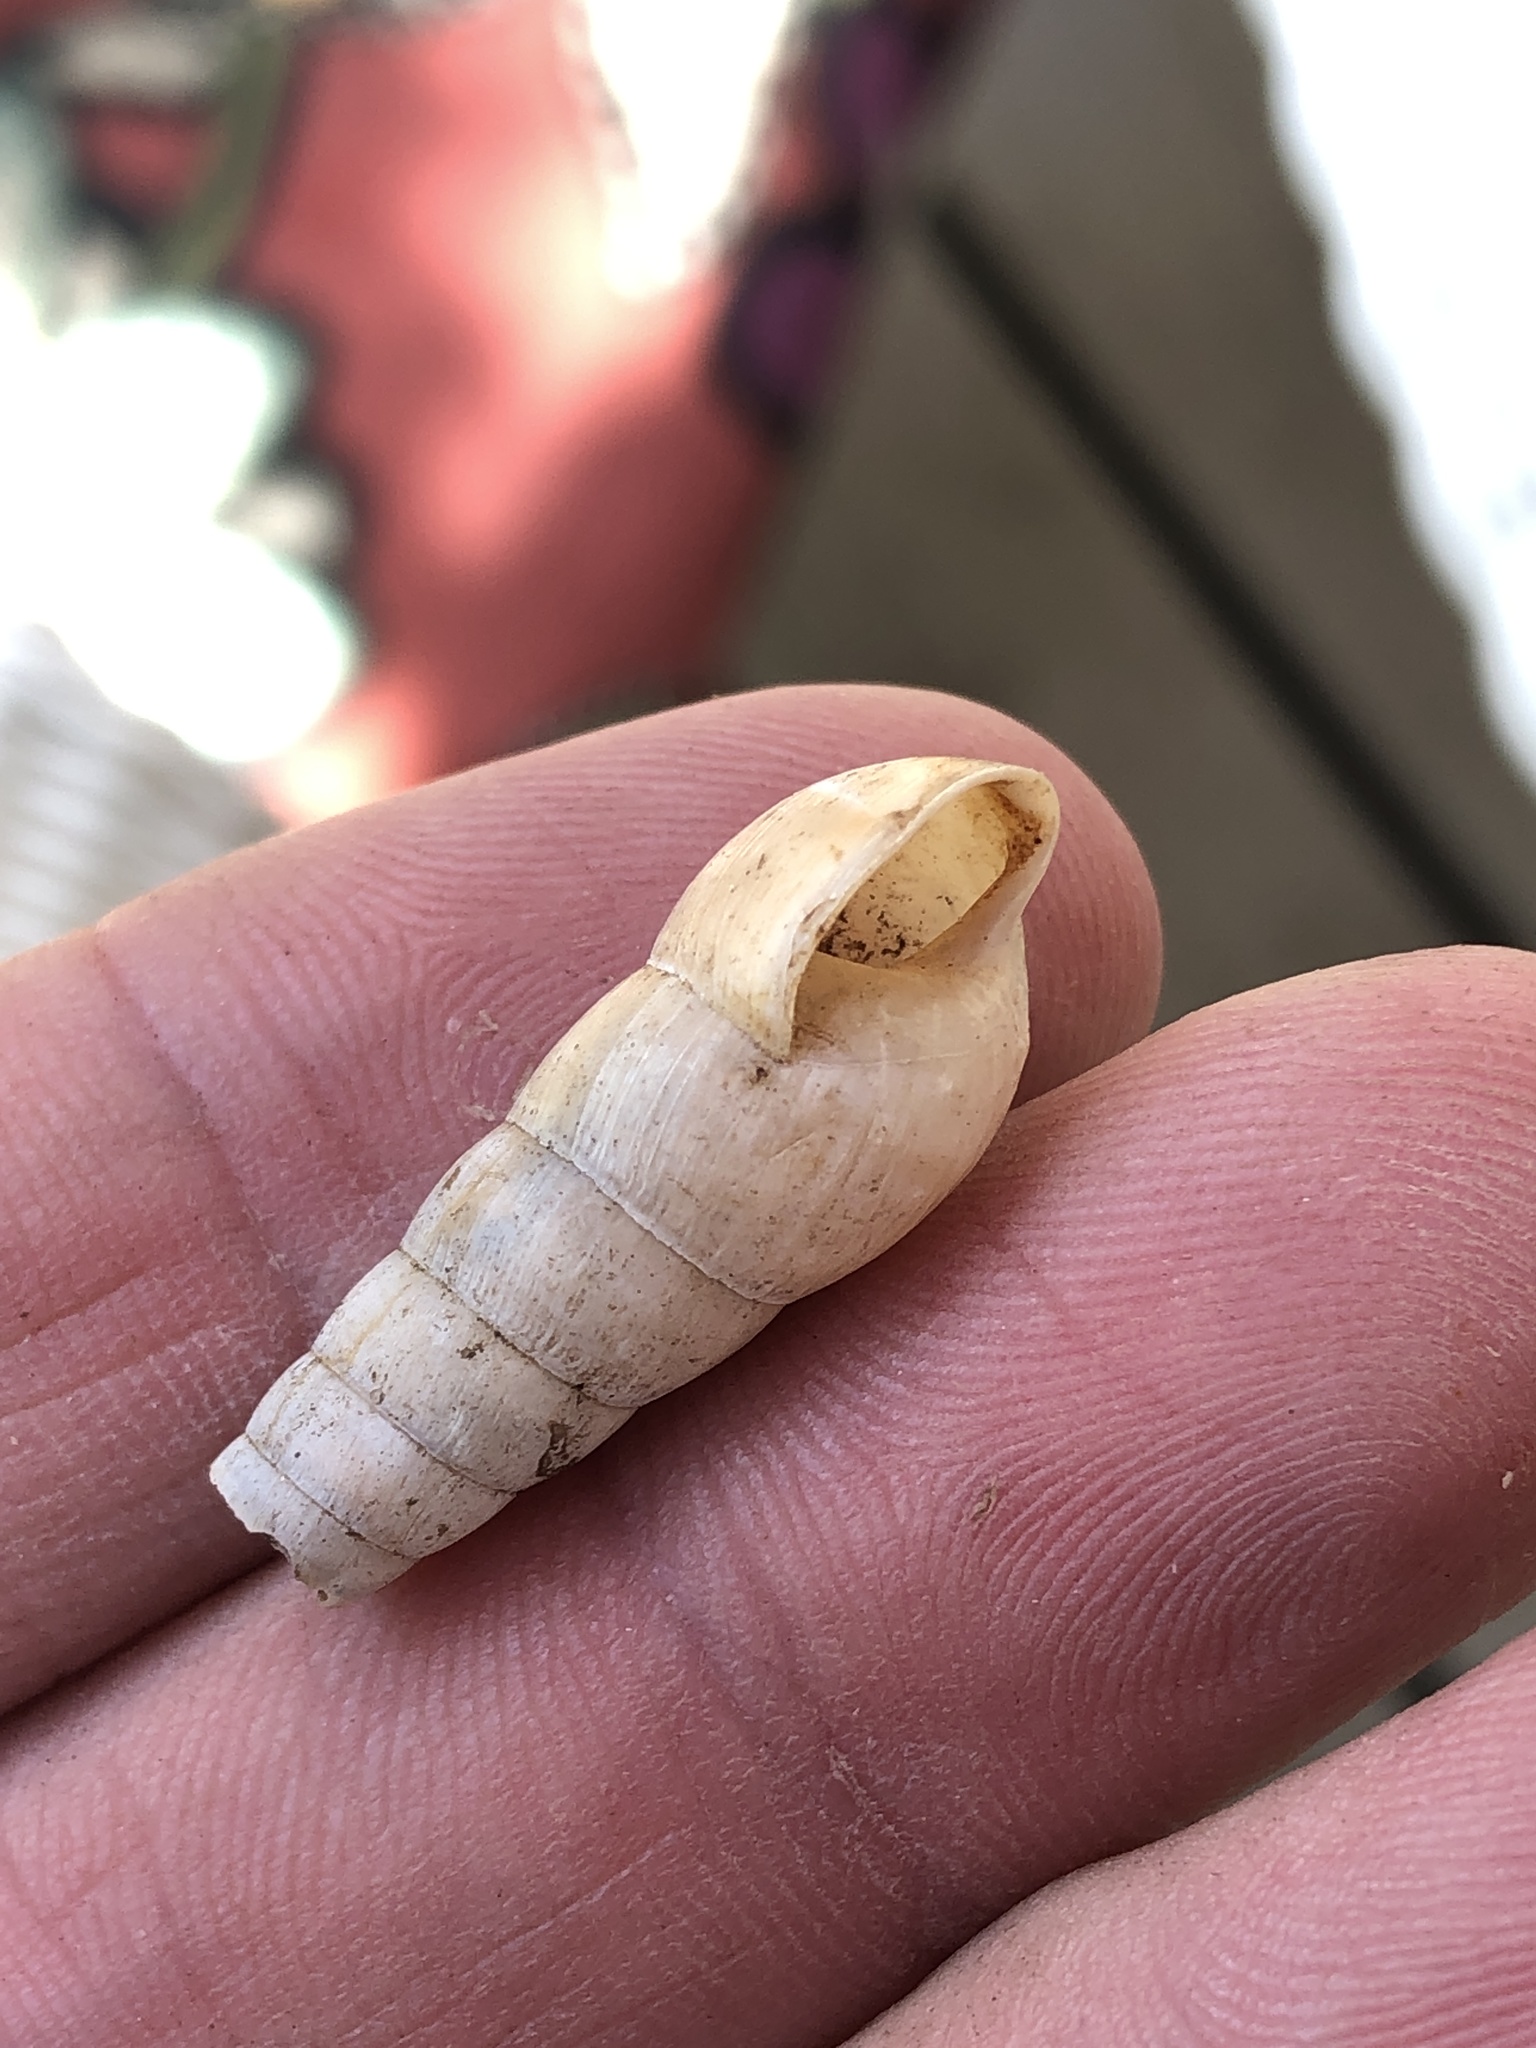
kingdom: Animalia
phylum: Mollusca
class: Gastropoda
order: Stylommatophora
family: Achatinidae
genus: Rumina
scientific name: Rumina decollata
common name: Decollate snail
